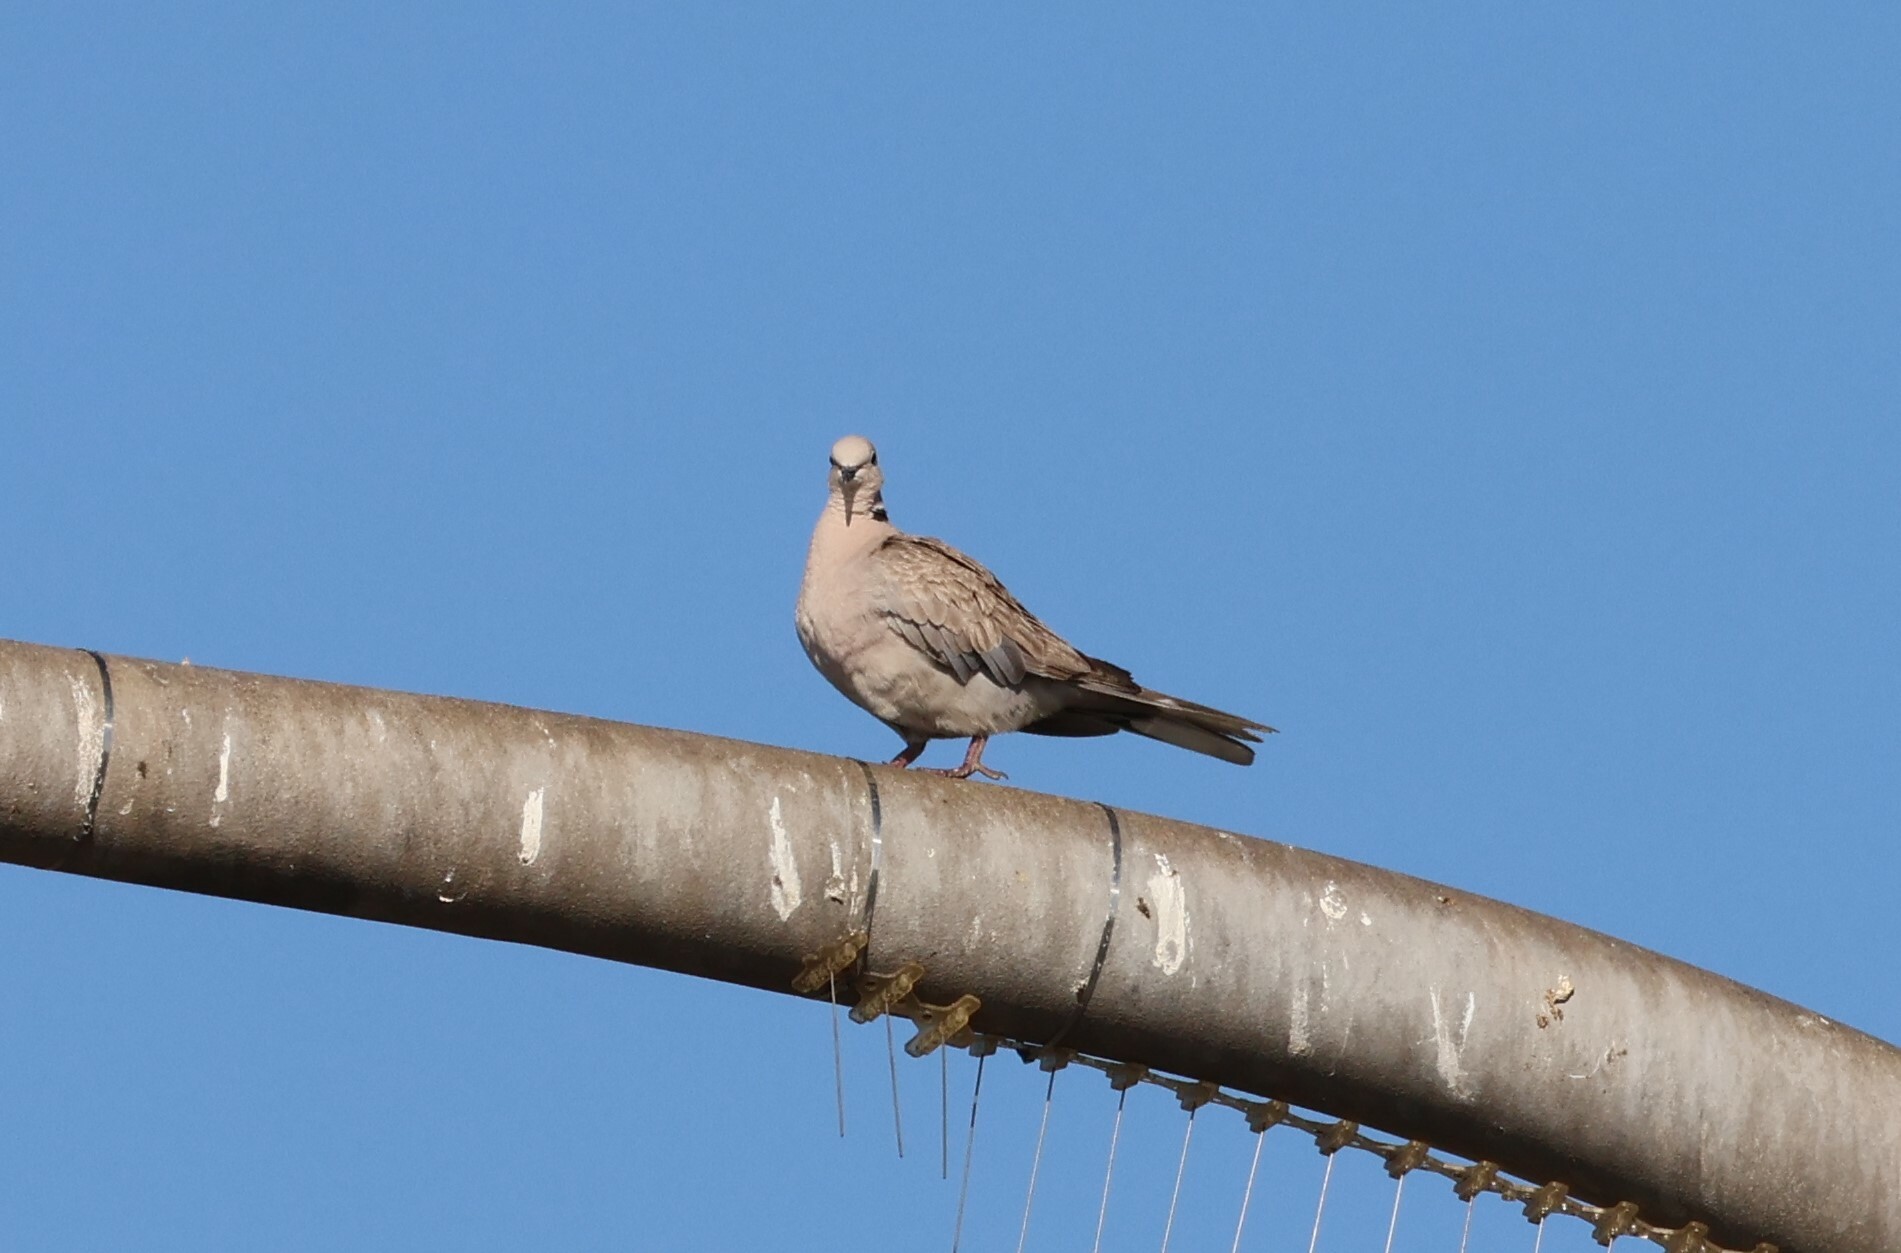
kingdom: Animalia
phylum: Chordata
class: Aves
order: Columbiformes
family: Columbidae
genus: Streptopelia
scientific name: Streptopelia decaocto
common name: Eurasian collared dove
